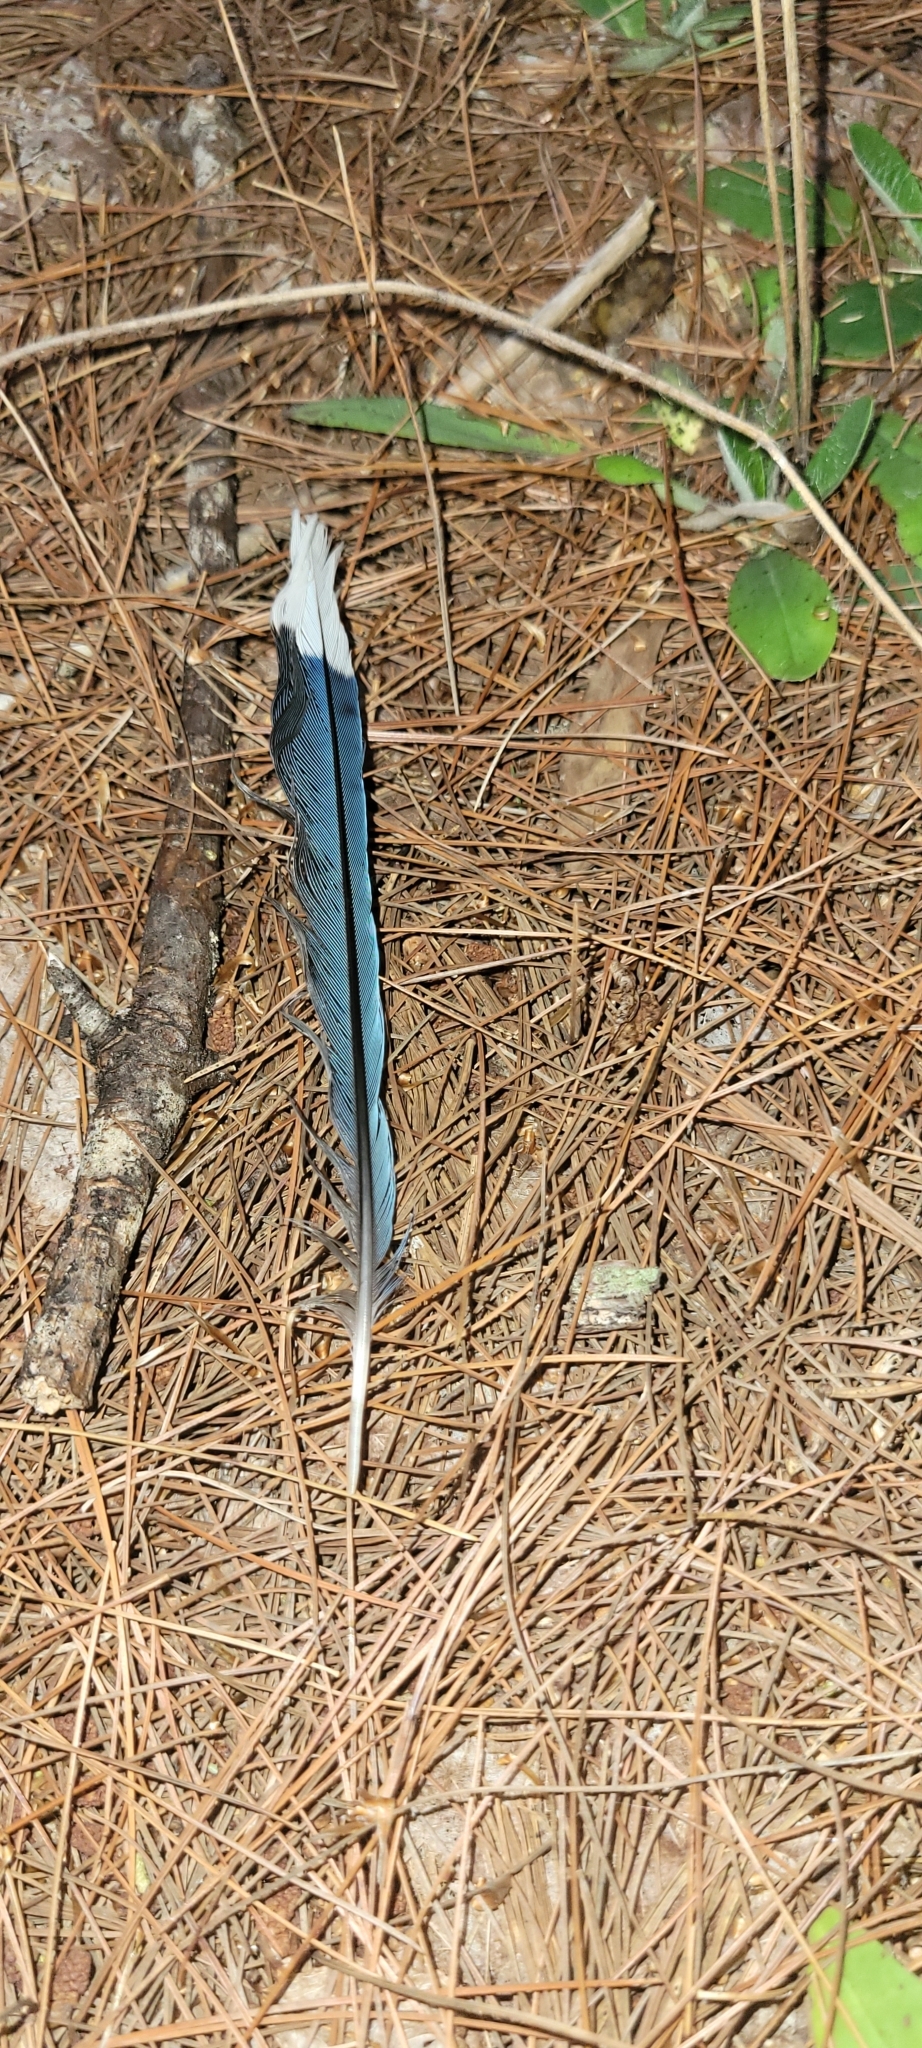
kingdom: Animalia
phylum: Chordata
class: Aves
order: Passeriformes
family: Corvidae
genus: Cyanocitta
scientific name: Cyanocitta cristata
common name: Blue jay
